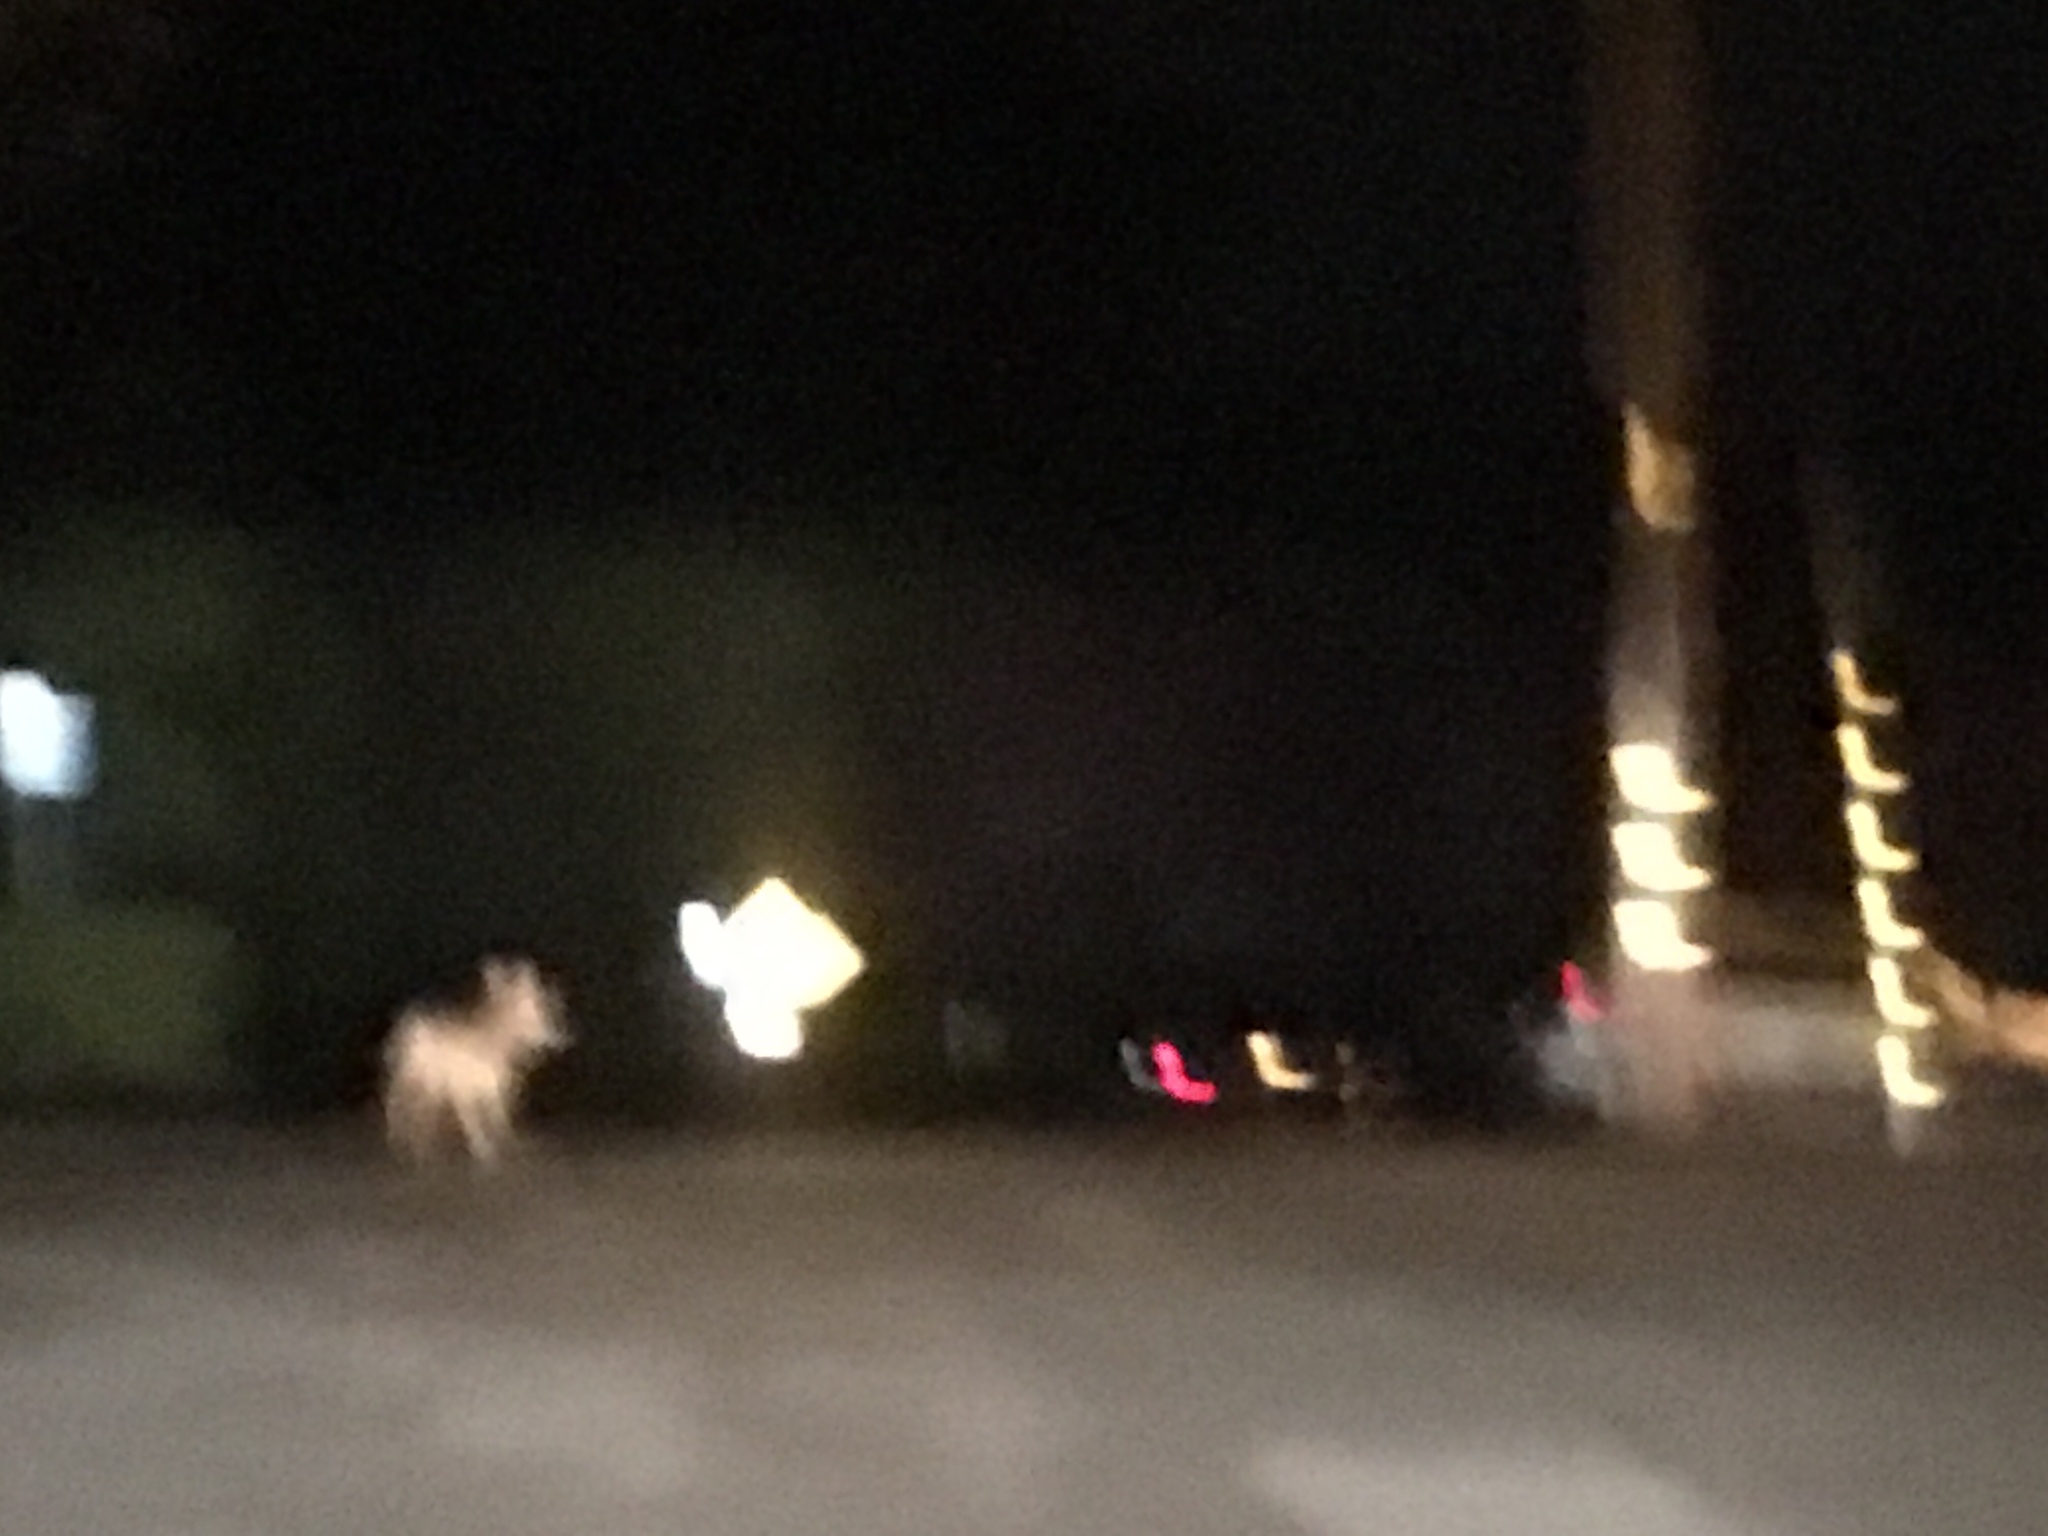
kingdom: Animalia
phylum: Chordata
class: Mammalia
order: Carnivora
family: Canidae
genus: Canis
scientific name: Canis latrans
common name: Coyote
